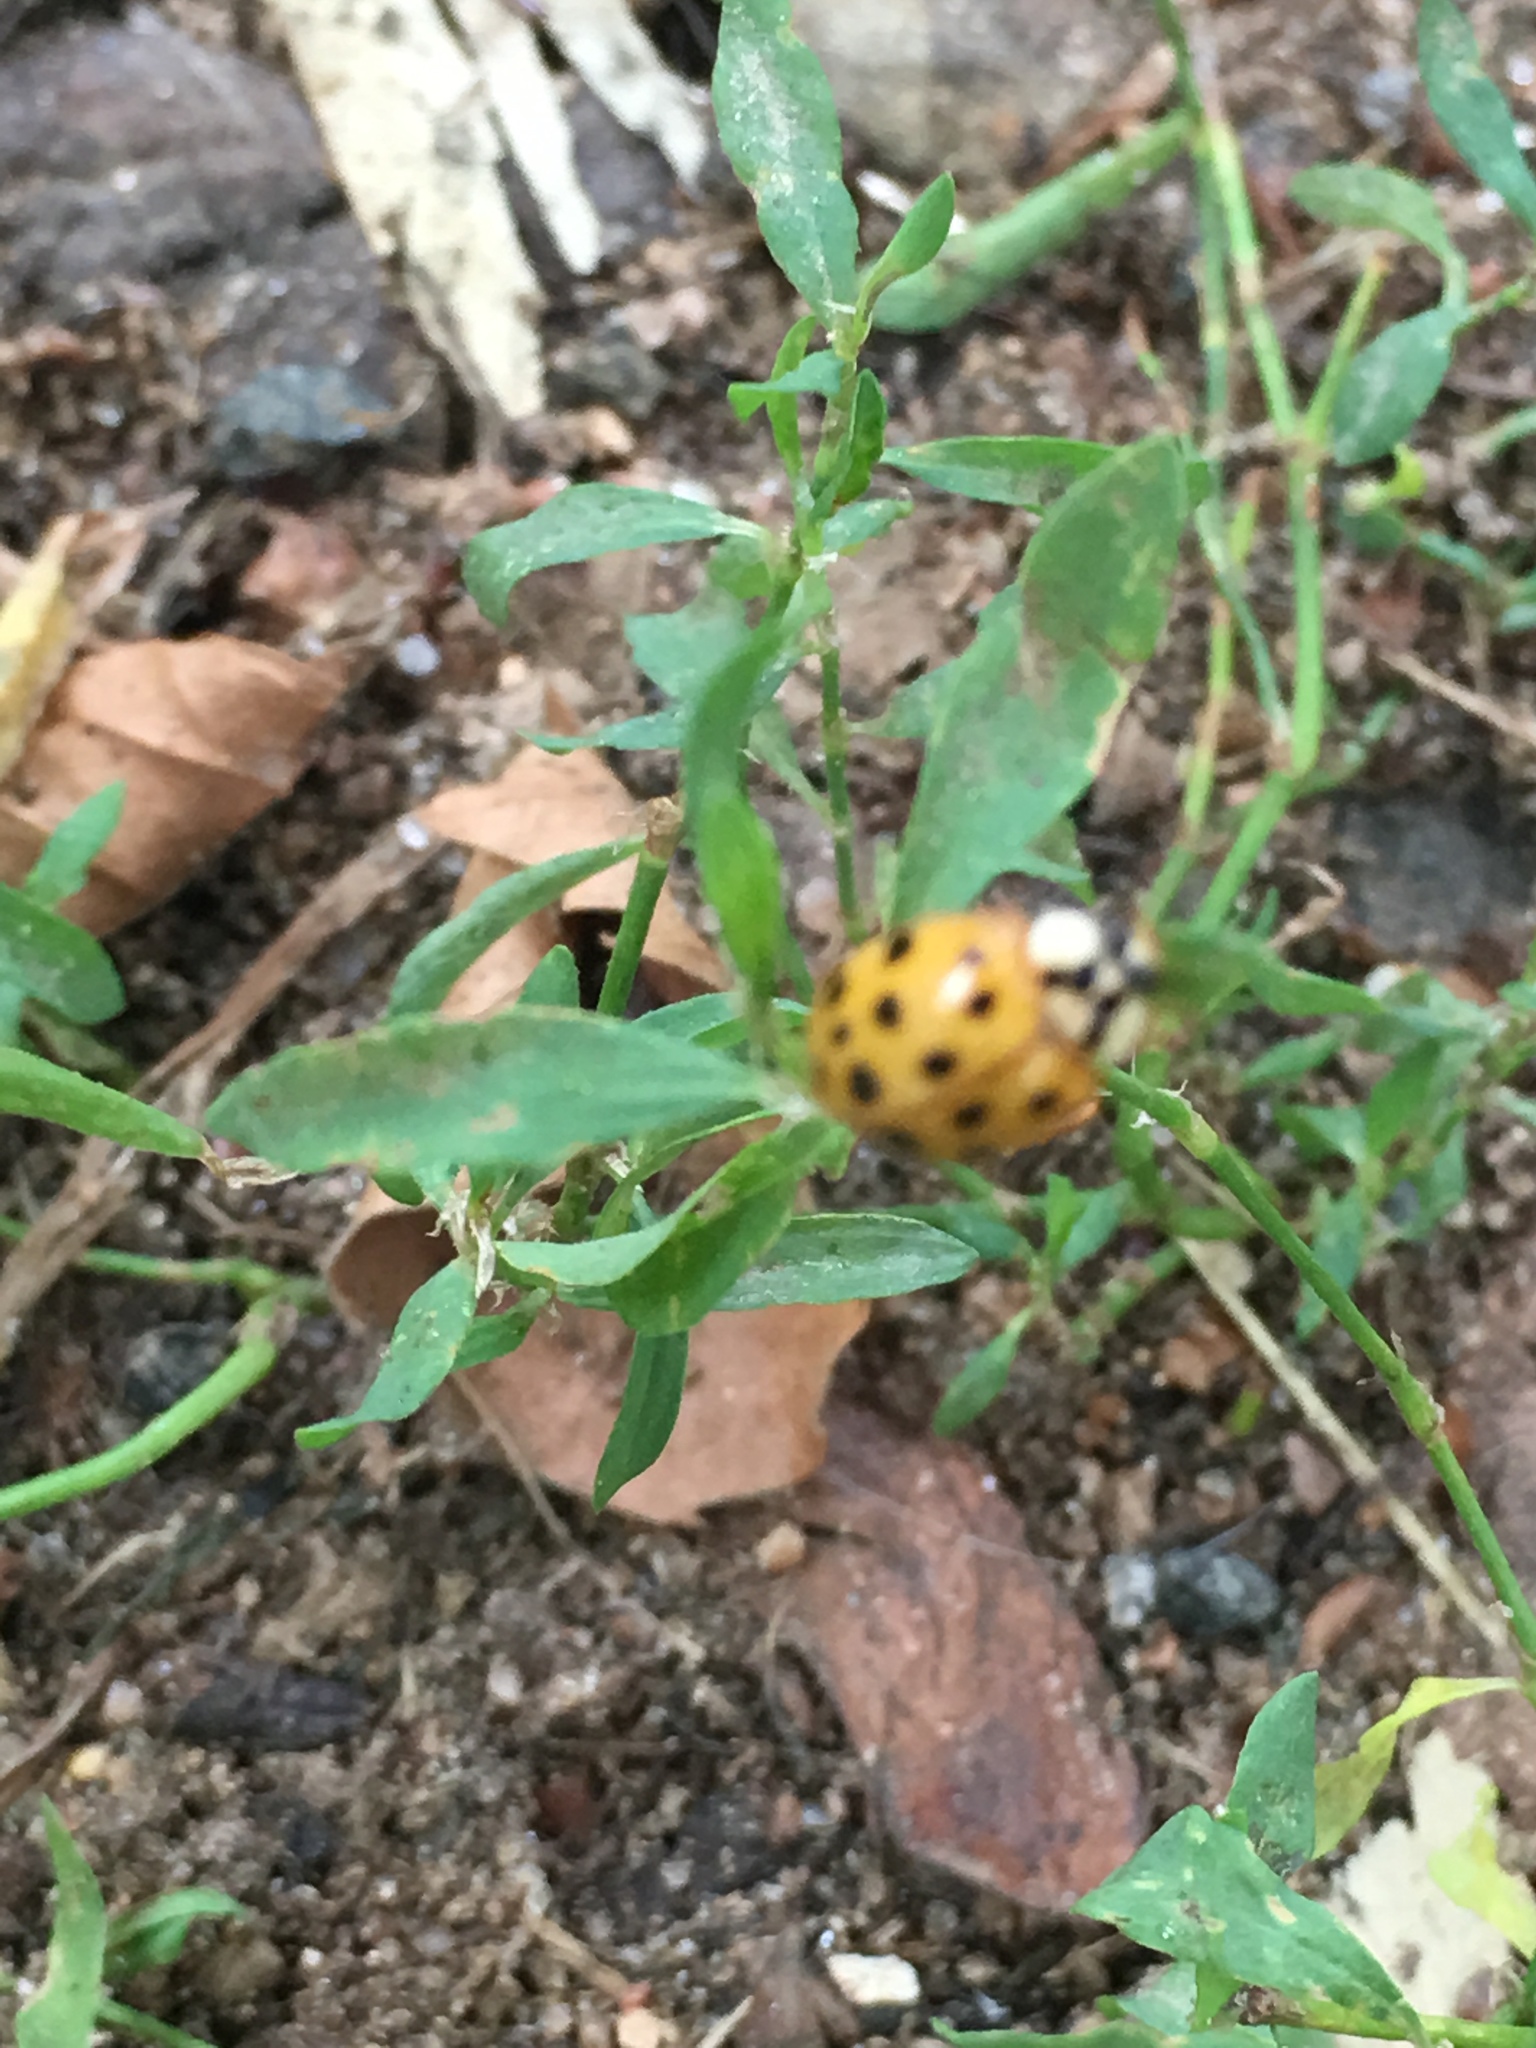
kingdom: Animalia
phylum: Arthropoda
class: Insecta
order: Coleoptera
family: Coccinellidae
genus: Harmonia
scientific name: Harmonia axyridis
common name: Harlequin ladybird
